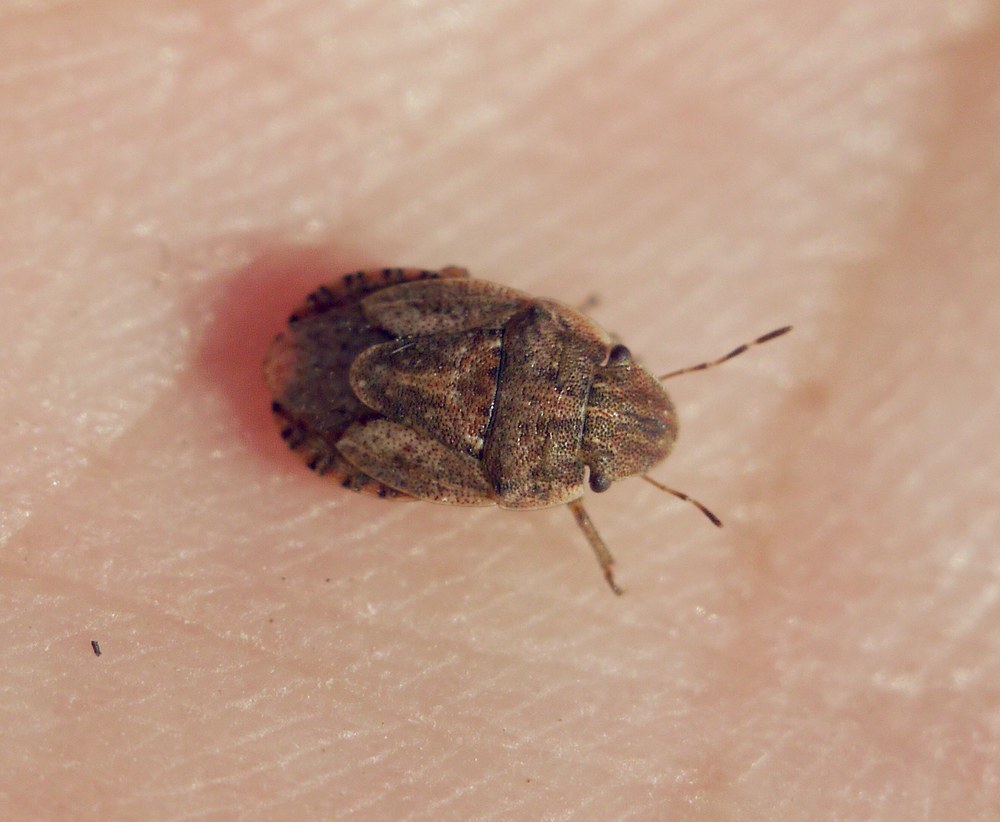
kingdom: Animalia
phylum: Arthropoda
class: Insecta
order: Hemiptera
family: Pentatomidae
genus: Sciocoris
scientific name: Sciocoris cursitans
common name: Sandrunner
